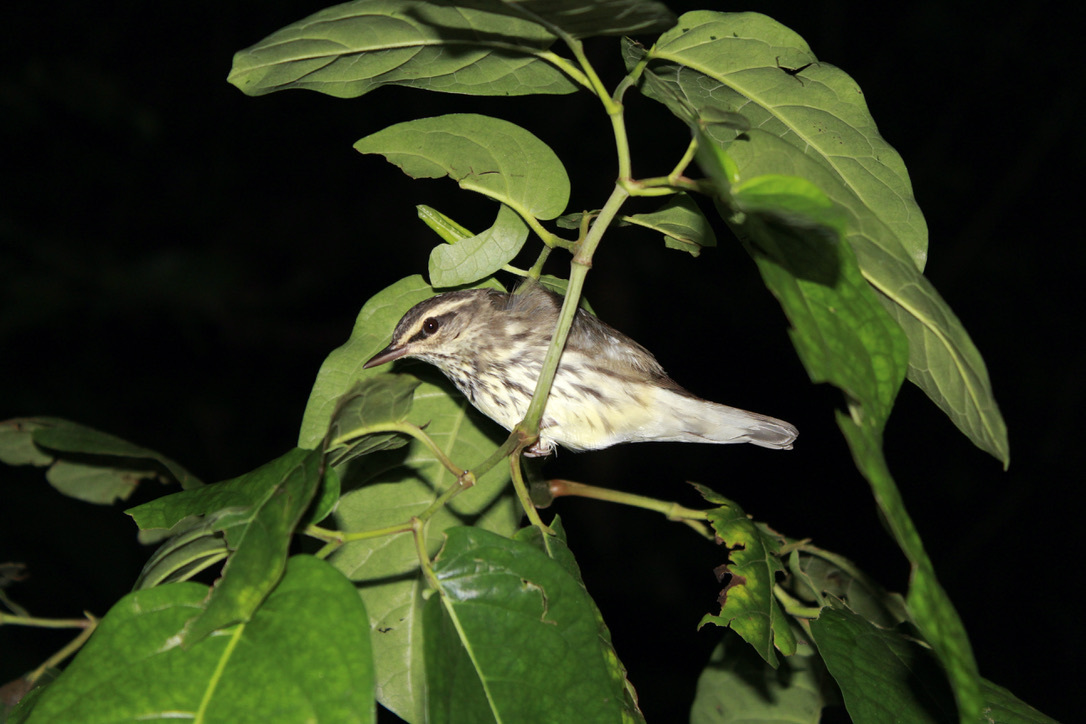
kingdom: Animalia
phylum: Chordata
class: Aves
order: Passeriformes
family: Parulidae
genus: Parkesia
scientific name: Parkesia noveboracensis
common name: Northern waterthrush
